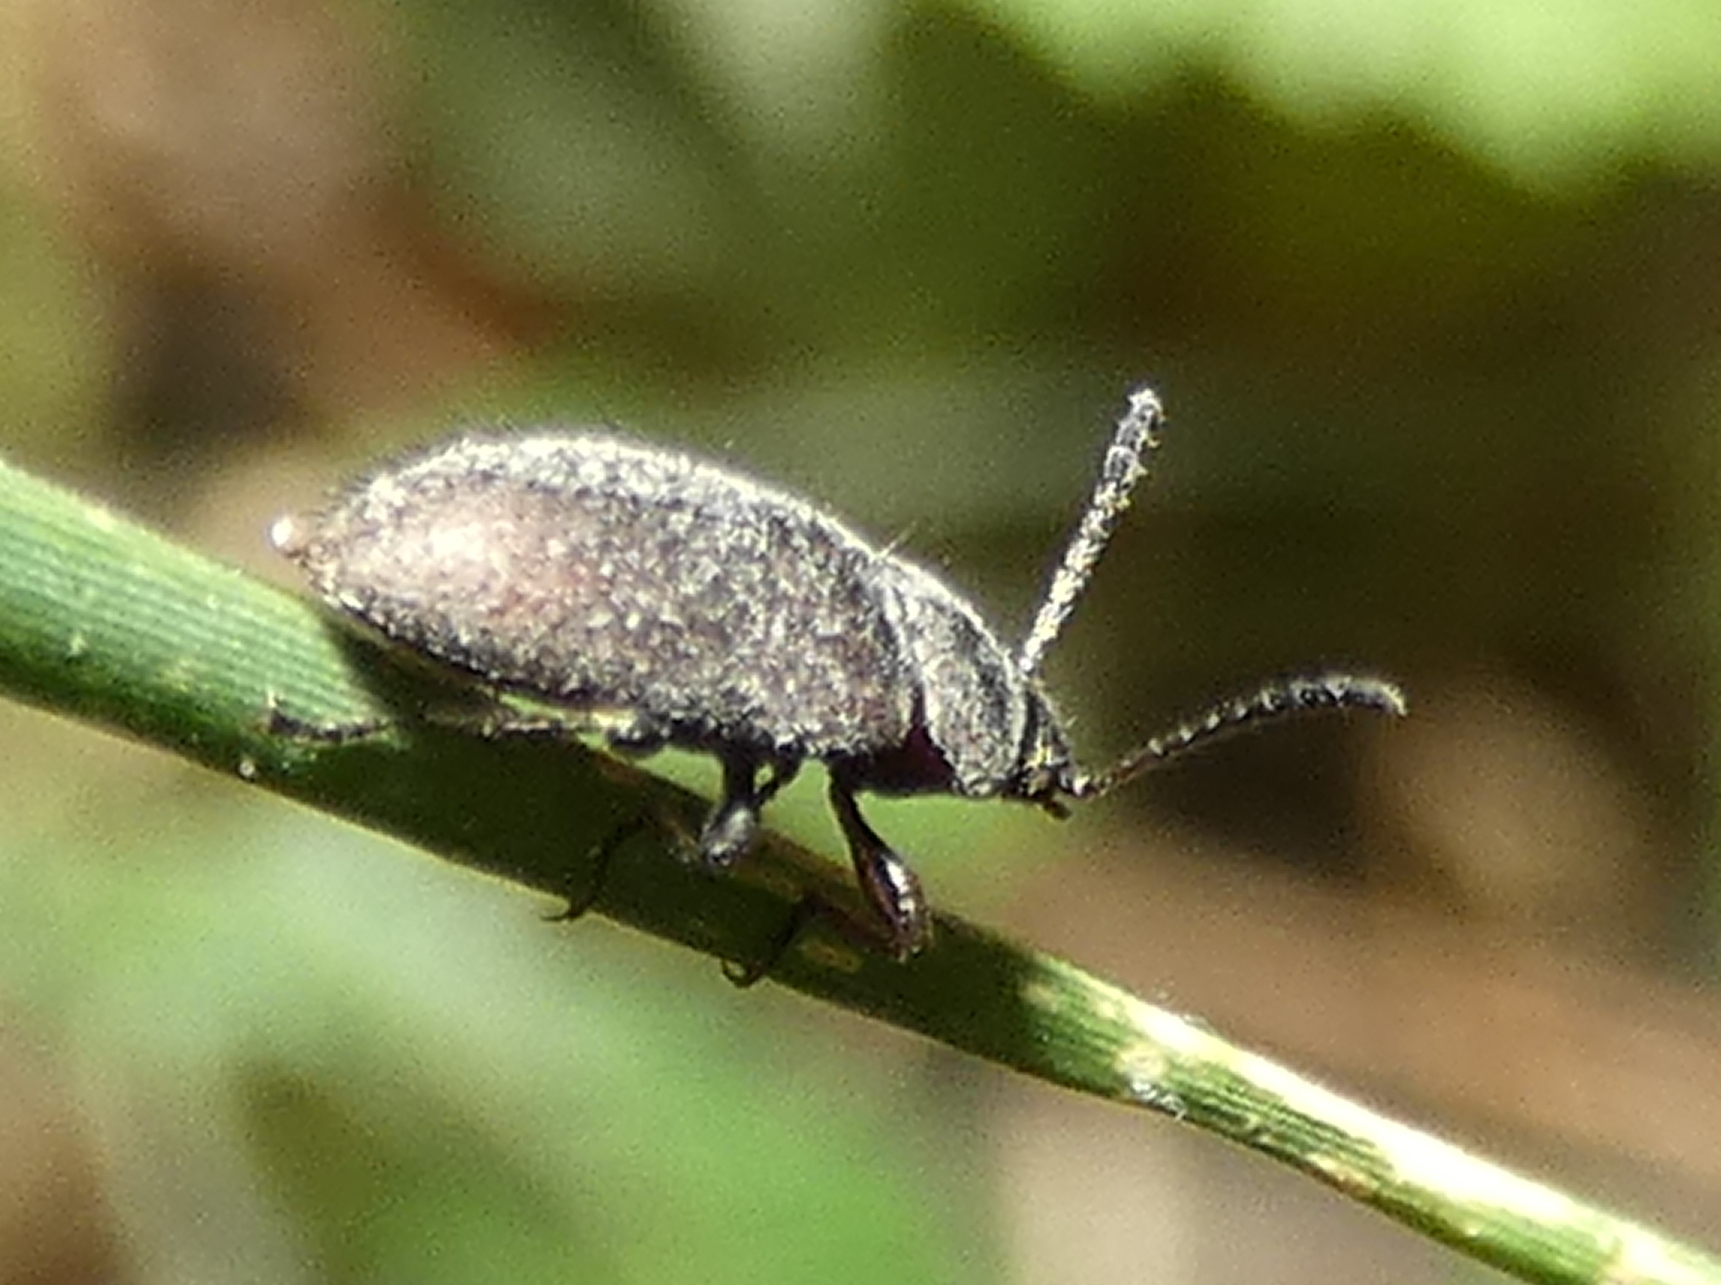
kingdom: Animalia
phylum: Arthropoda
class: Insecta
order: Coleoptera
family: Tenebrionidae
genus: Lagria
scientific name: Lagria villosa
